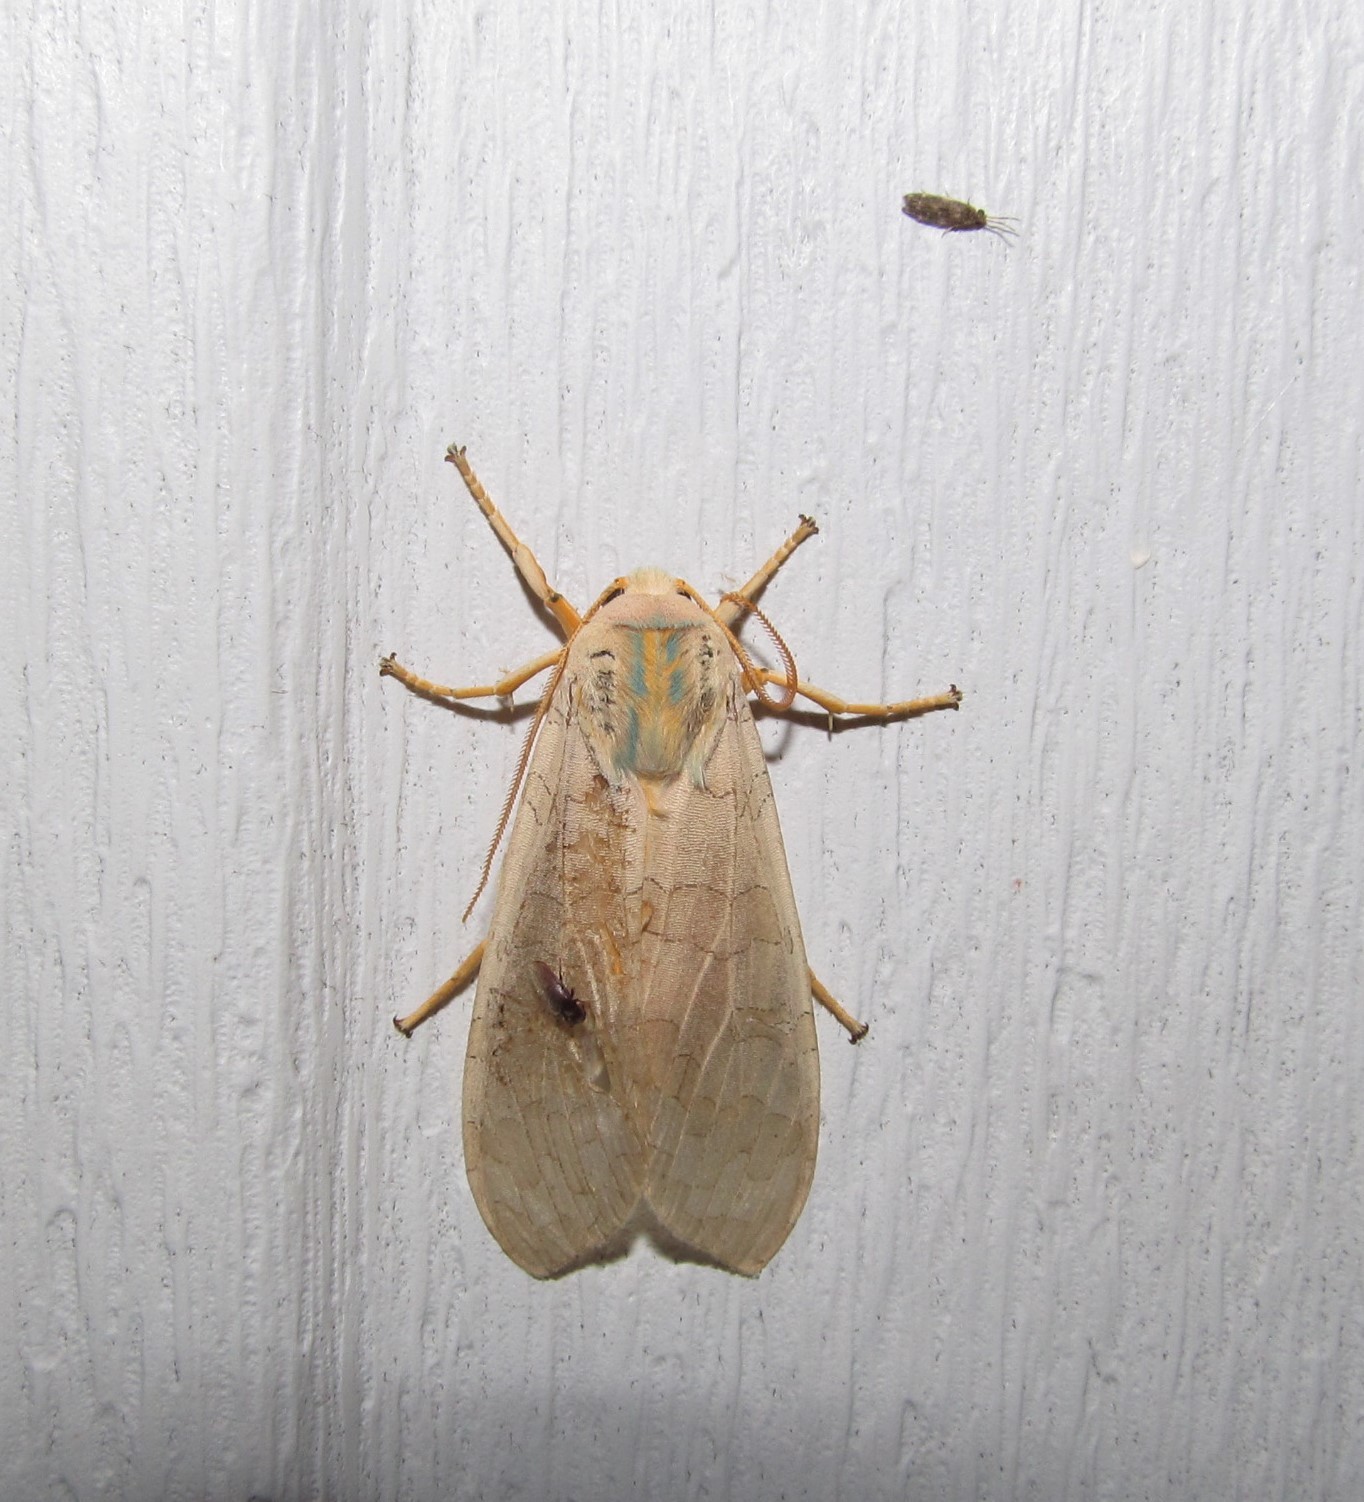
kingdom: Animalia
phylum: Arthropoda
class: Insecta
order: Lepidoptera
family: Erebidae
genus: Halysidota
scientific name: Halysidota
